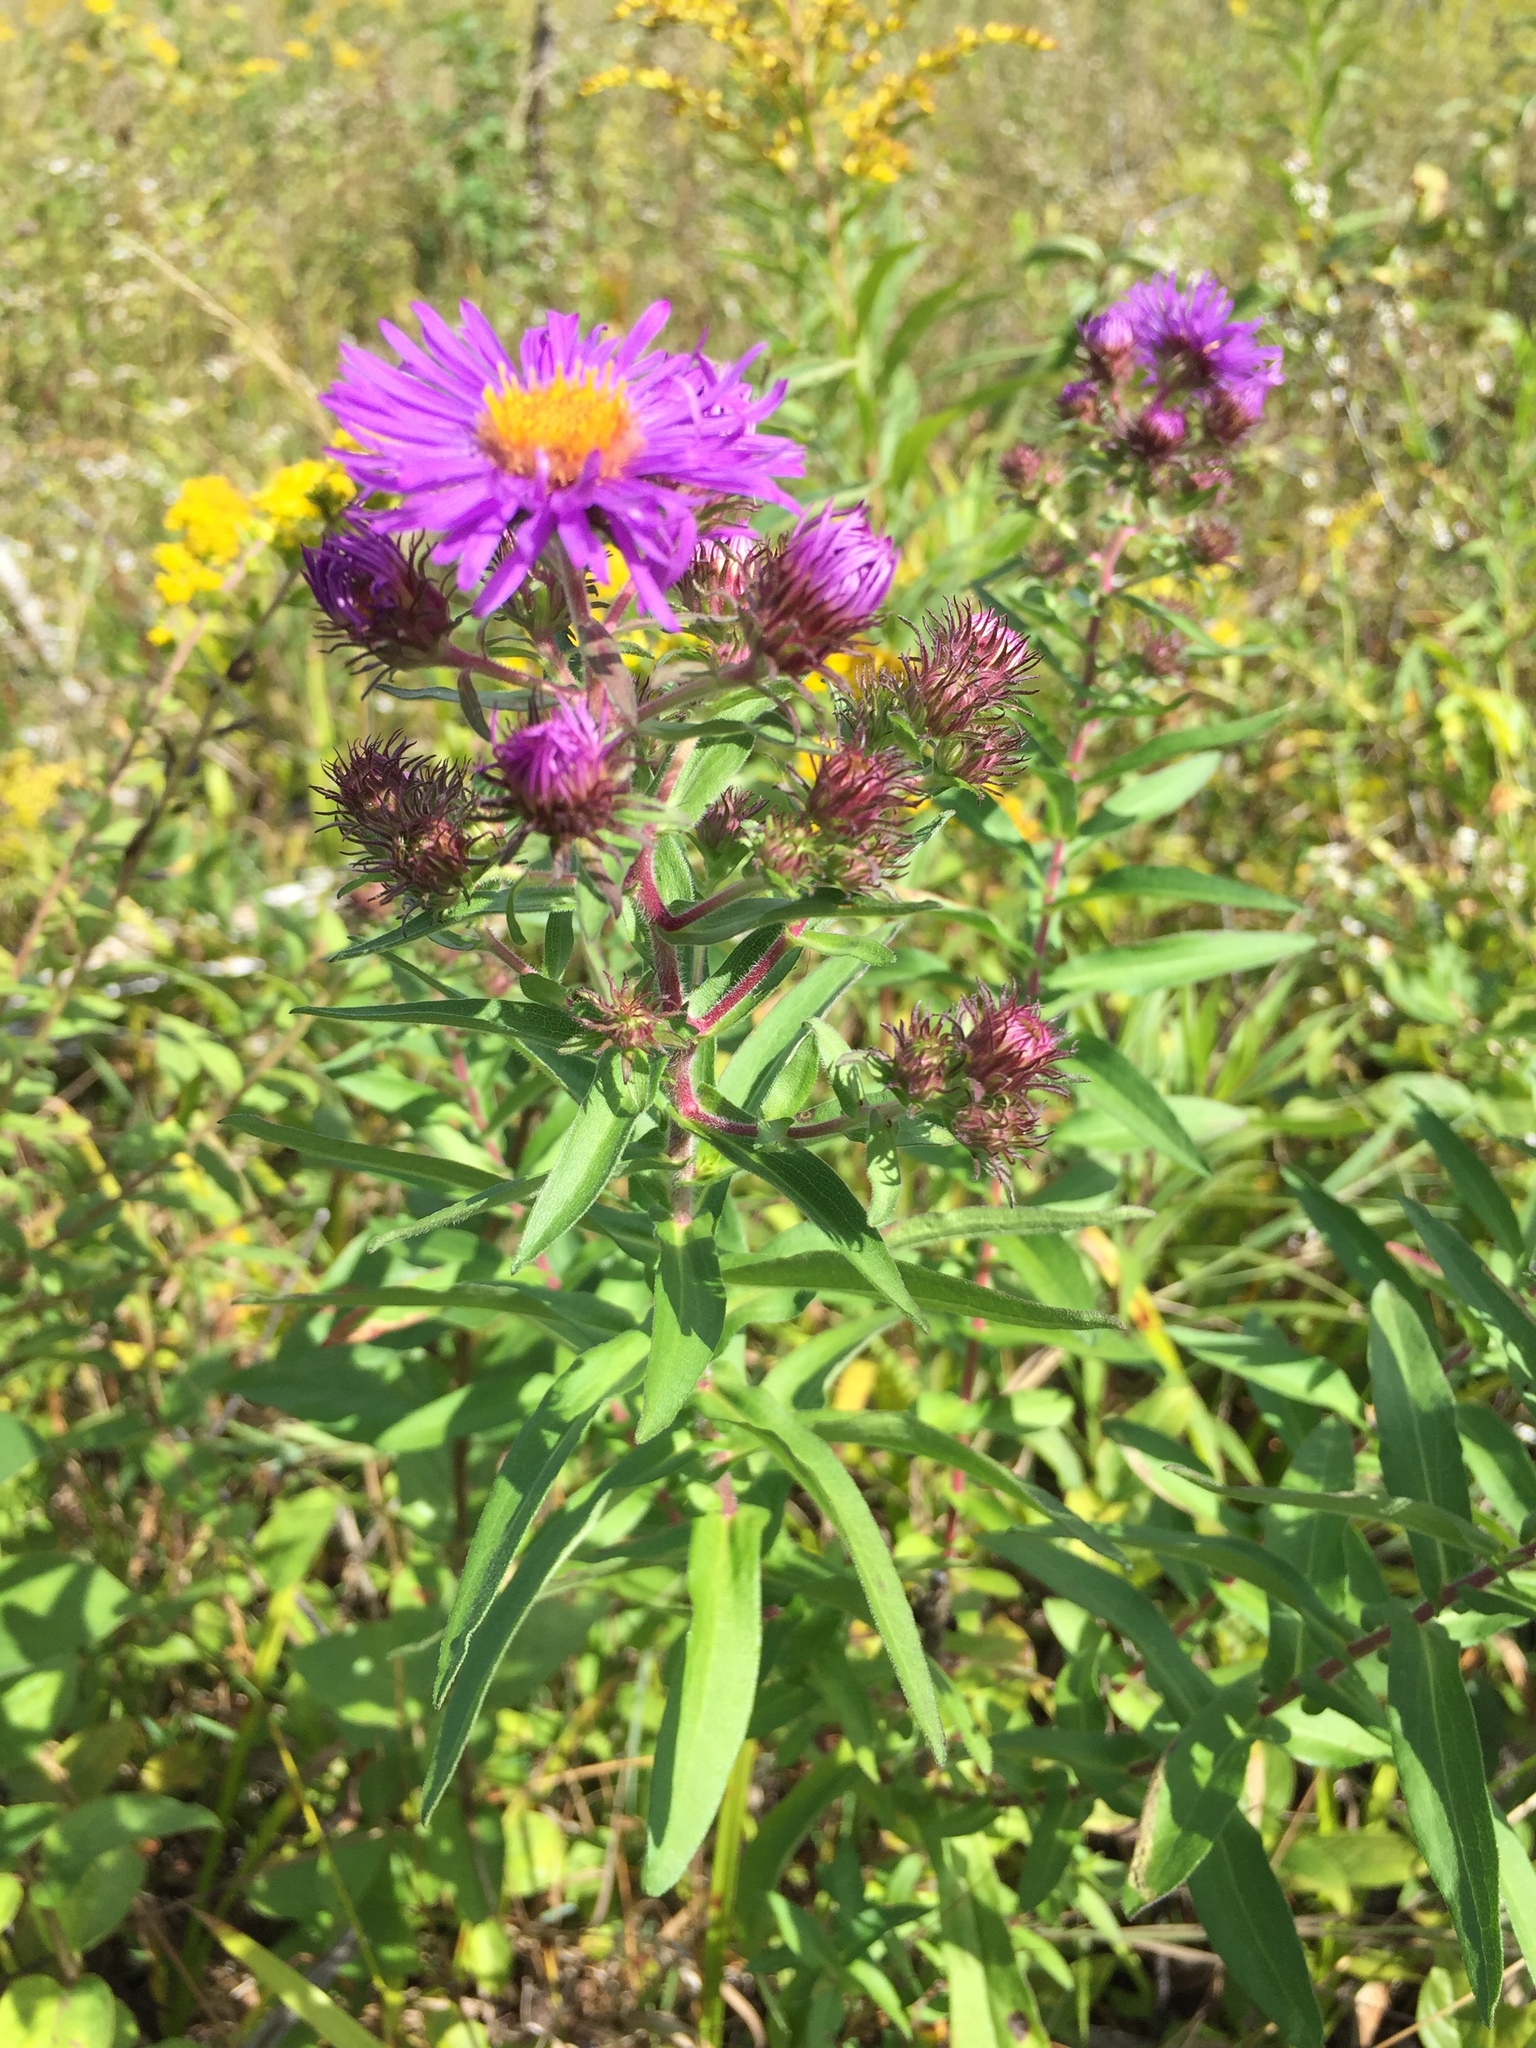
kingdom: Plantae
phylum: Tracheophyta
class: Magnoliopsida
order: Asterales
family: Asteraceae
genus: Symphyotrichum
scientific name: Symphyotrichum novae-angliae
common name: Michaelmas daisy
